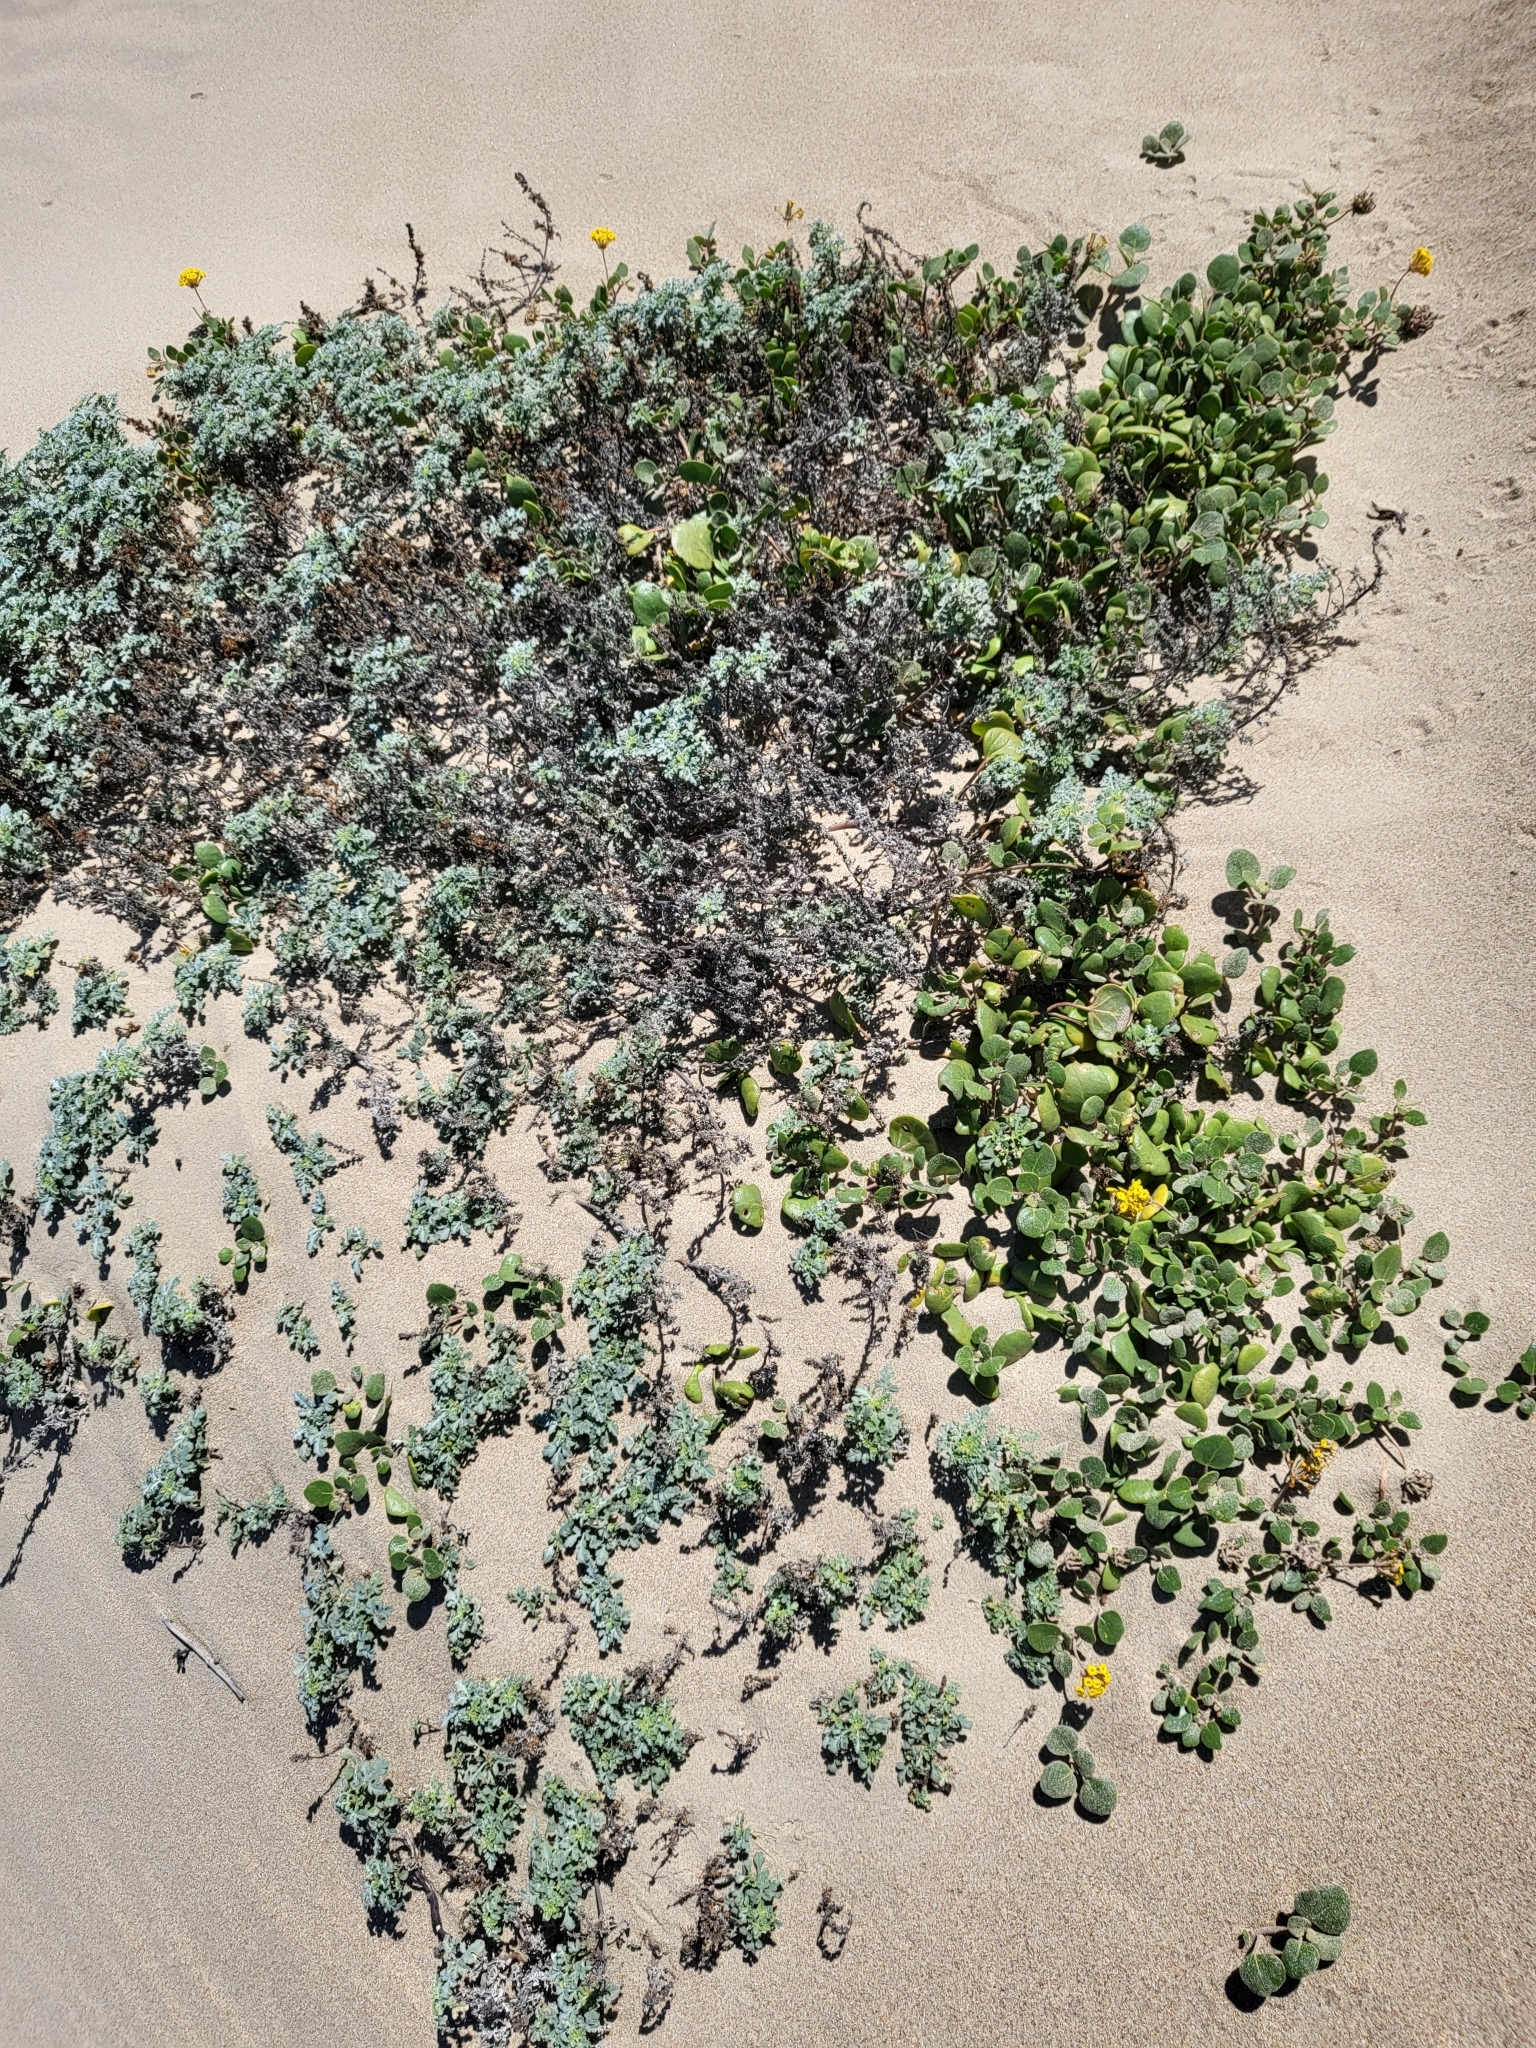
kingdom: Plantae
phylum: Tracheophyta
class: Magnoliopsida
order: Caryophyllales
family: Nyctaginaceae
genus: Abronia
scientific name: Abronia latifolia
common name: Yellow sand-verbena
